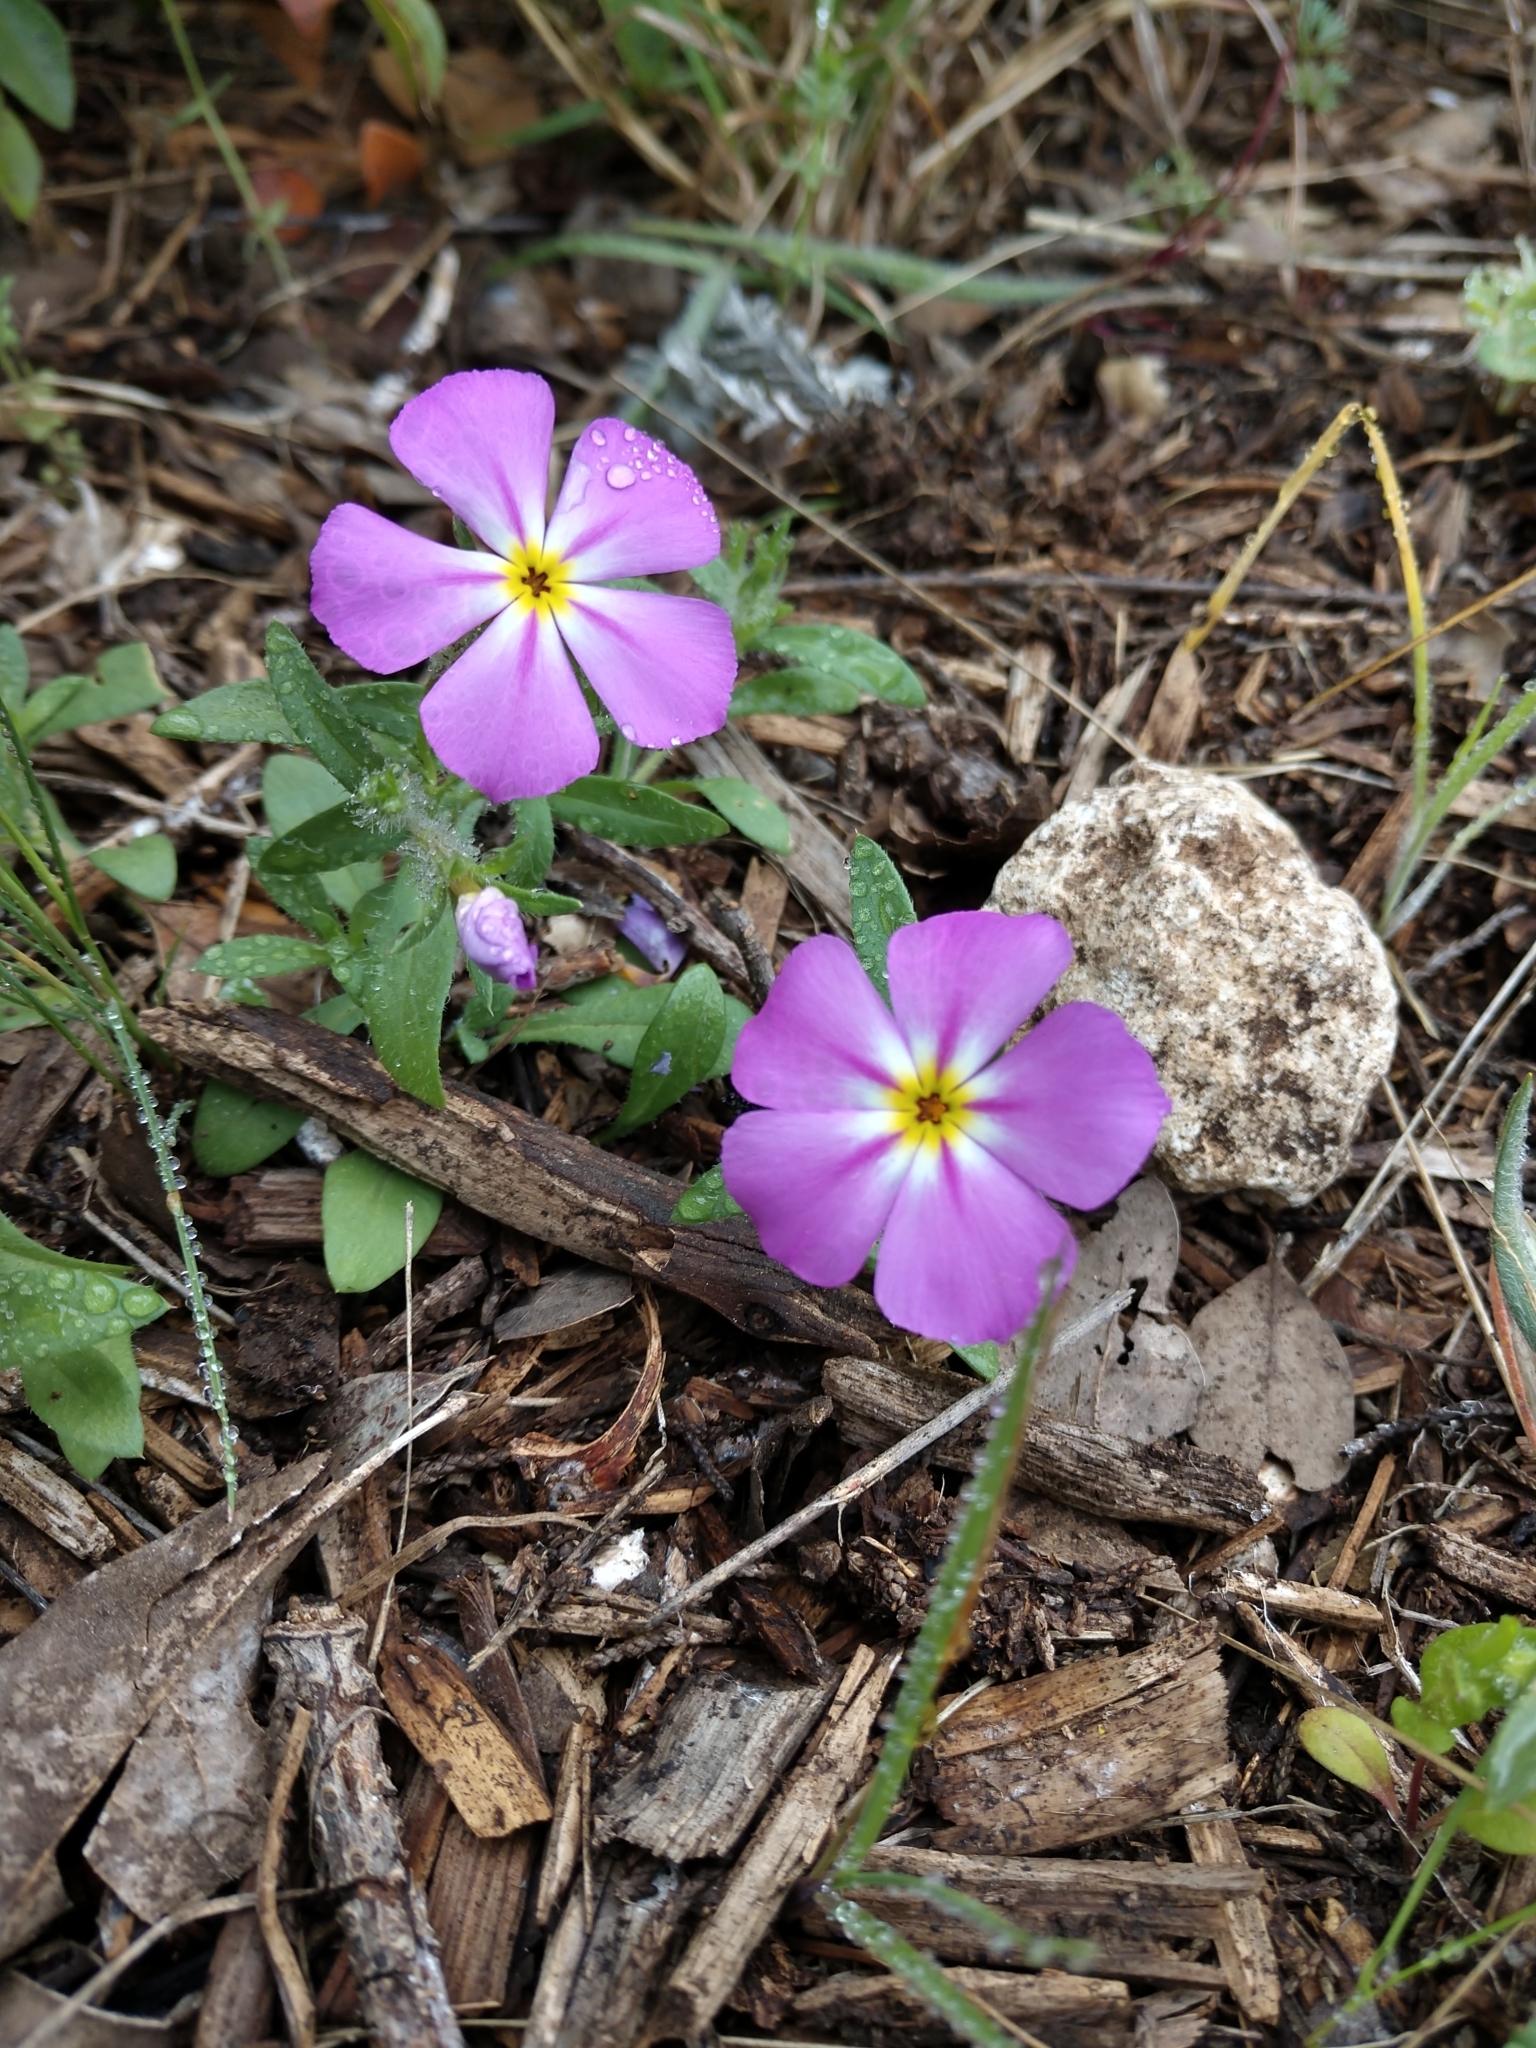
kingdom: Plantae
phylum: Tracheophyta
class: Magnoliopsida
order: Ericales
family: Polemoniaceae
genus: Phlox
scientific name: Phlox roemeriana
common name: Roemer's phlox
